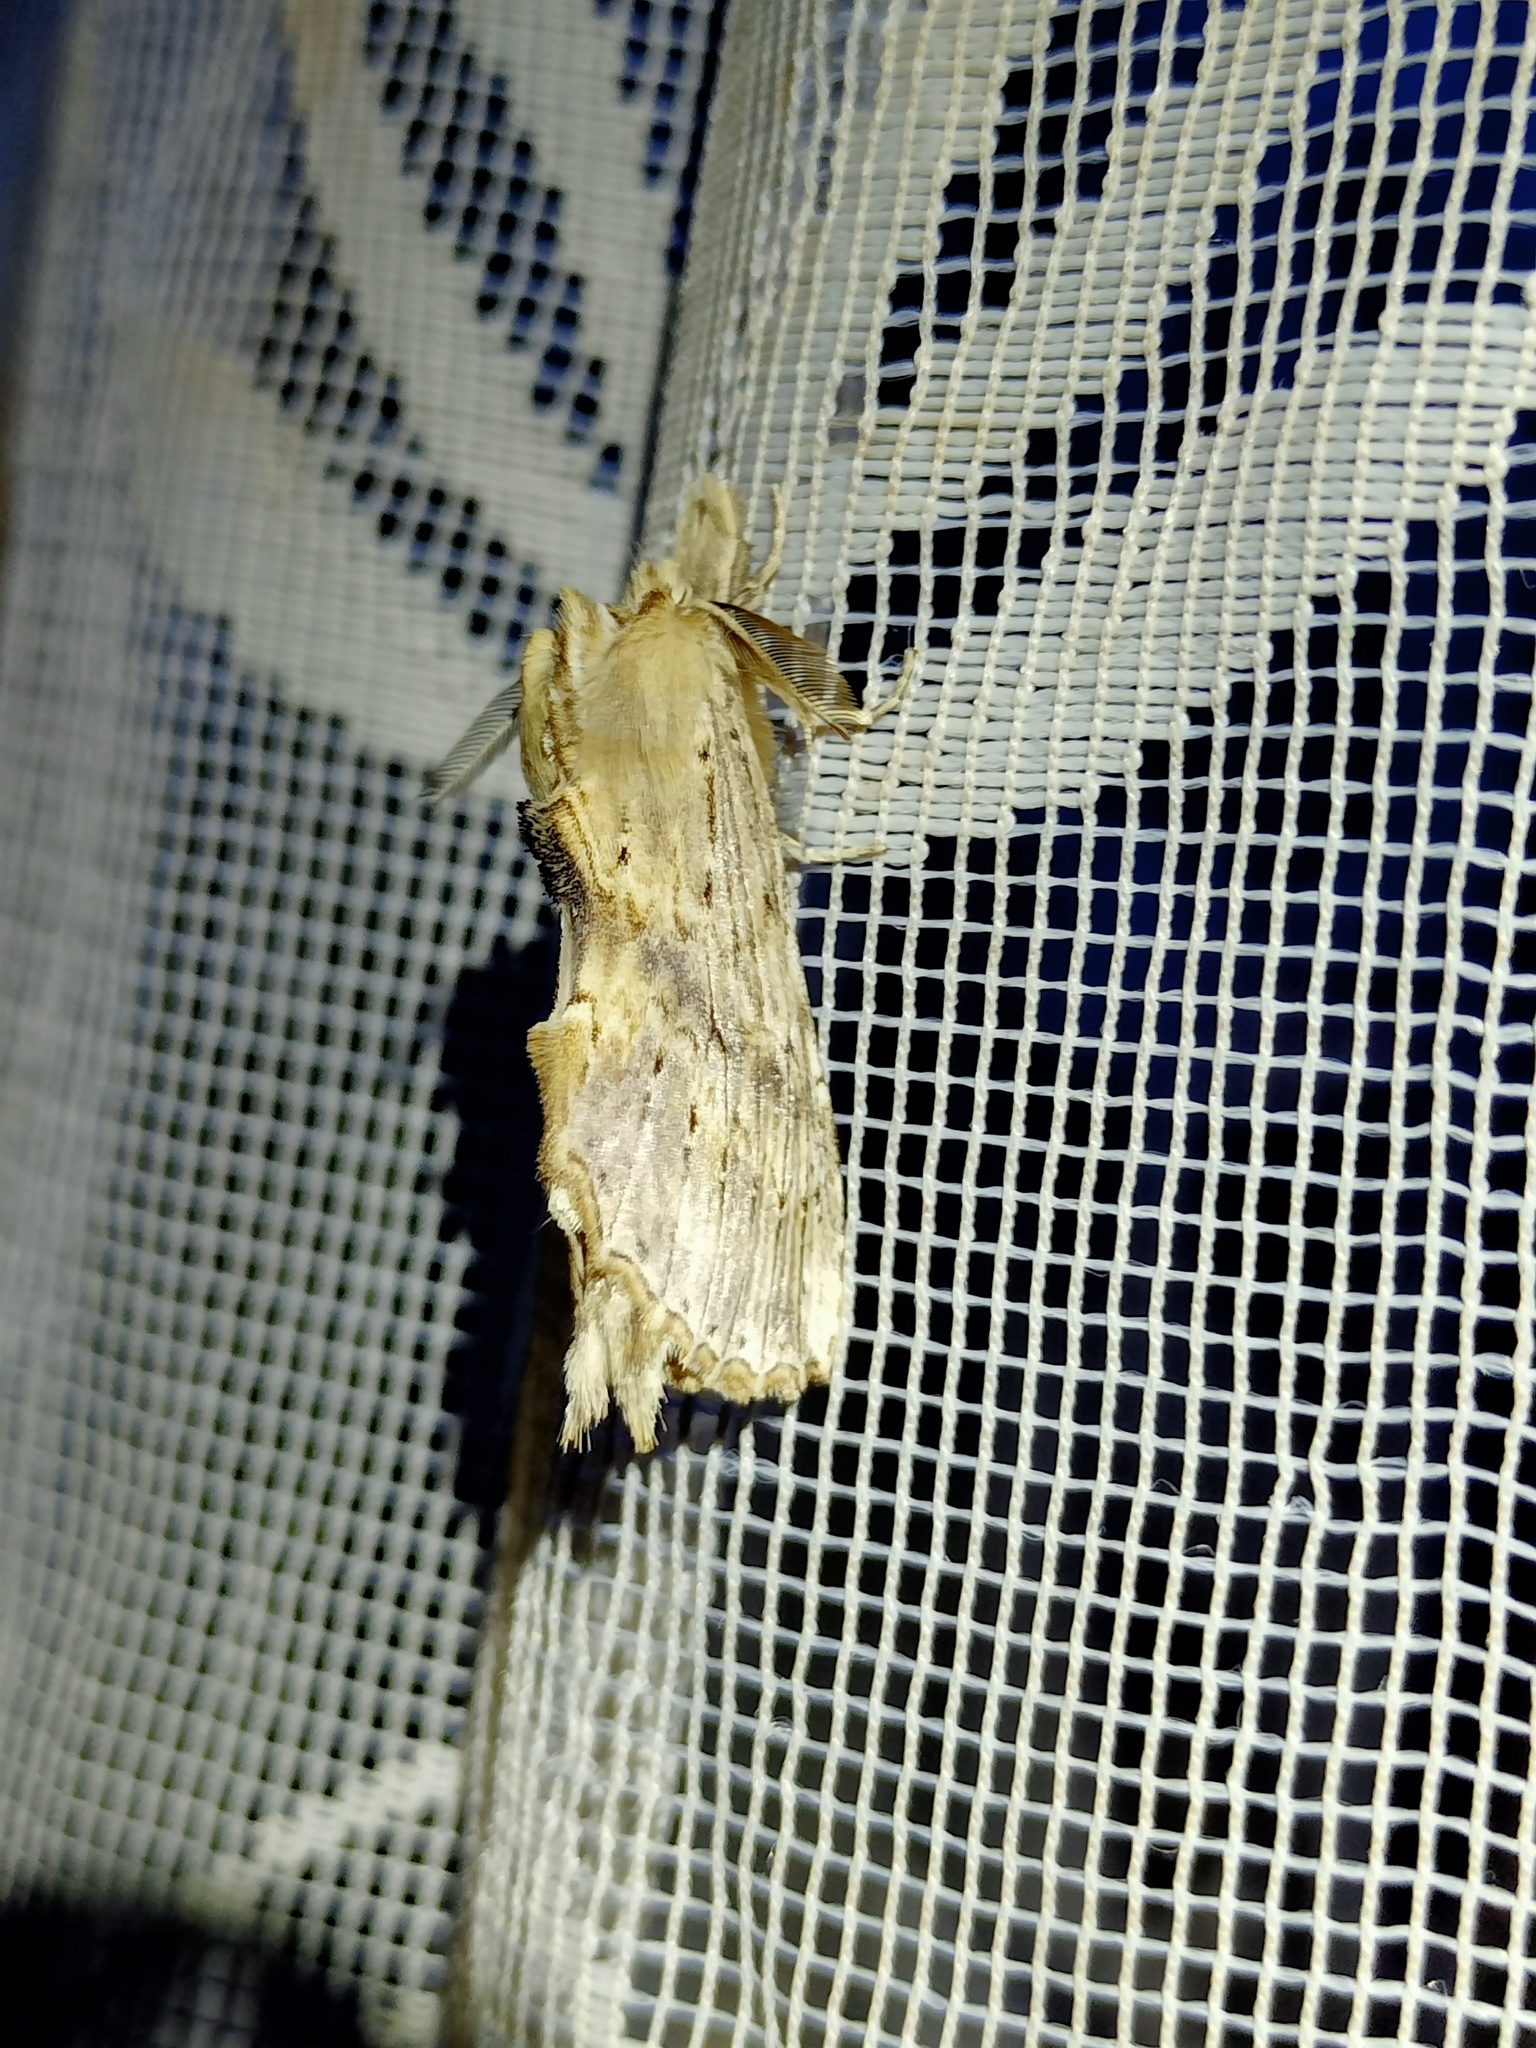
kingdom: Animalia
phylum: Arthropoda
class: Insecta
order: Lepidoptera
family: Notodontidae
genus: Pterostoma
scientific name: Pterostoma palpina
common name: Pale prominent
